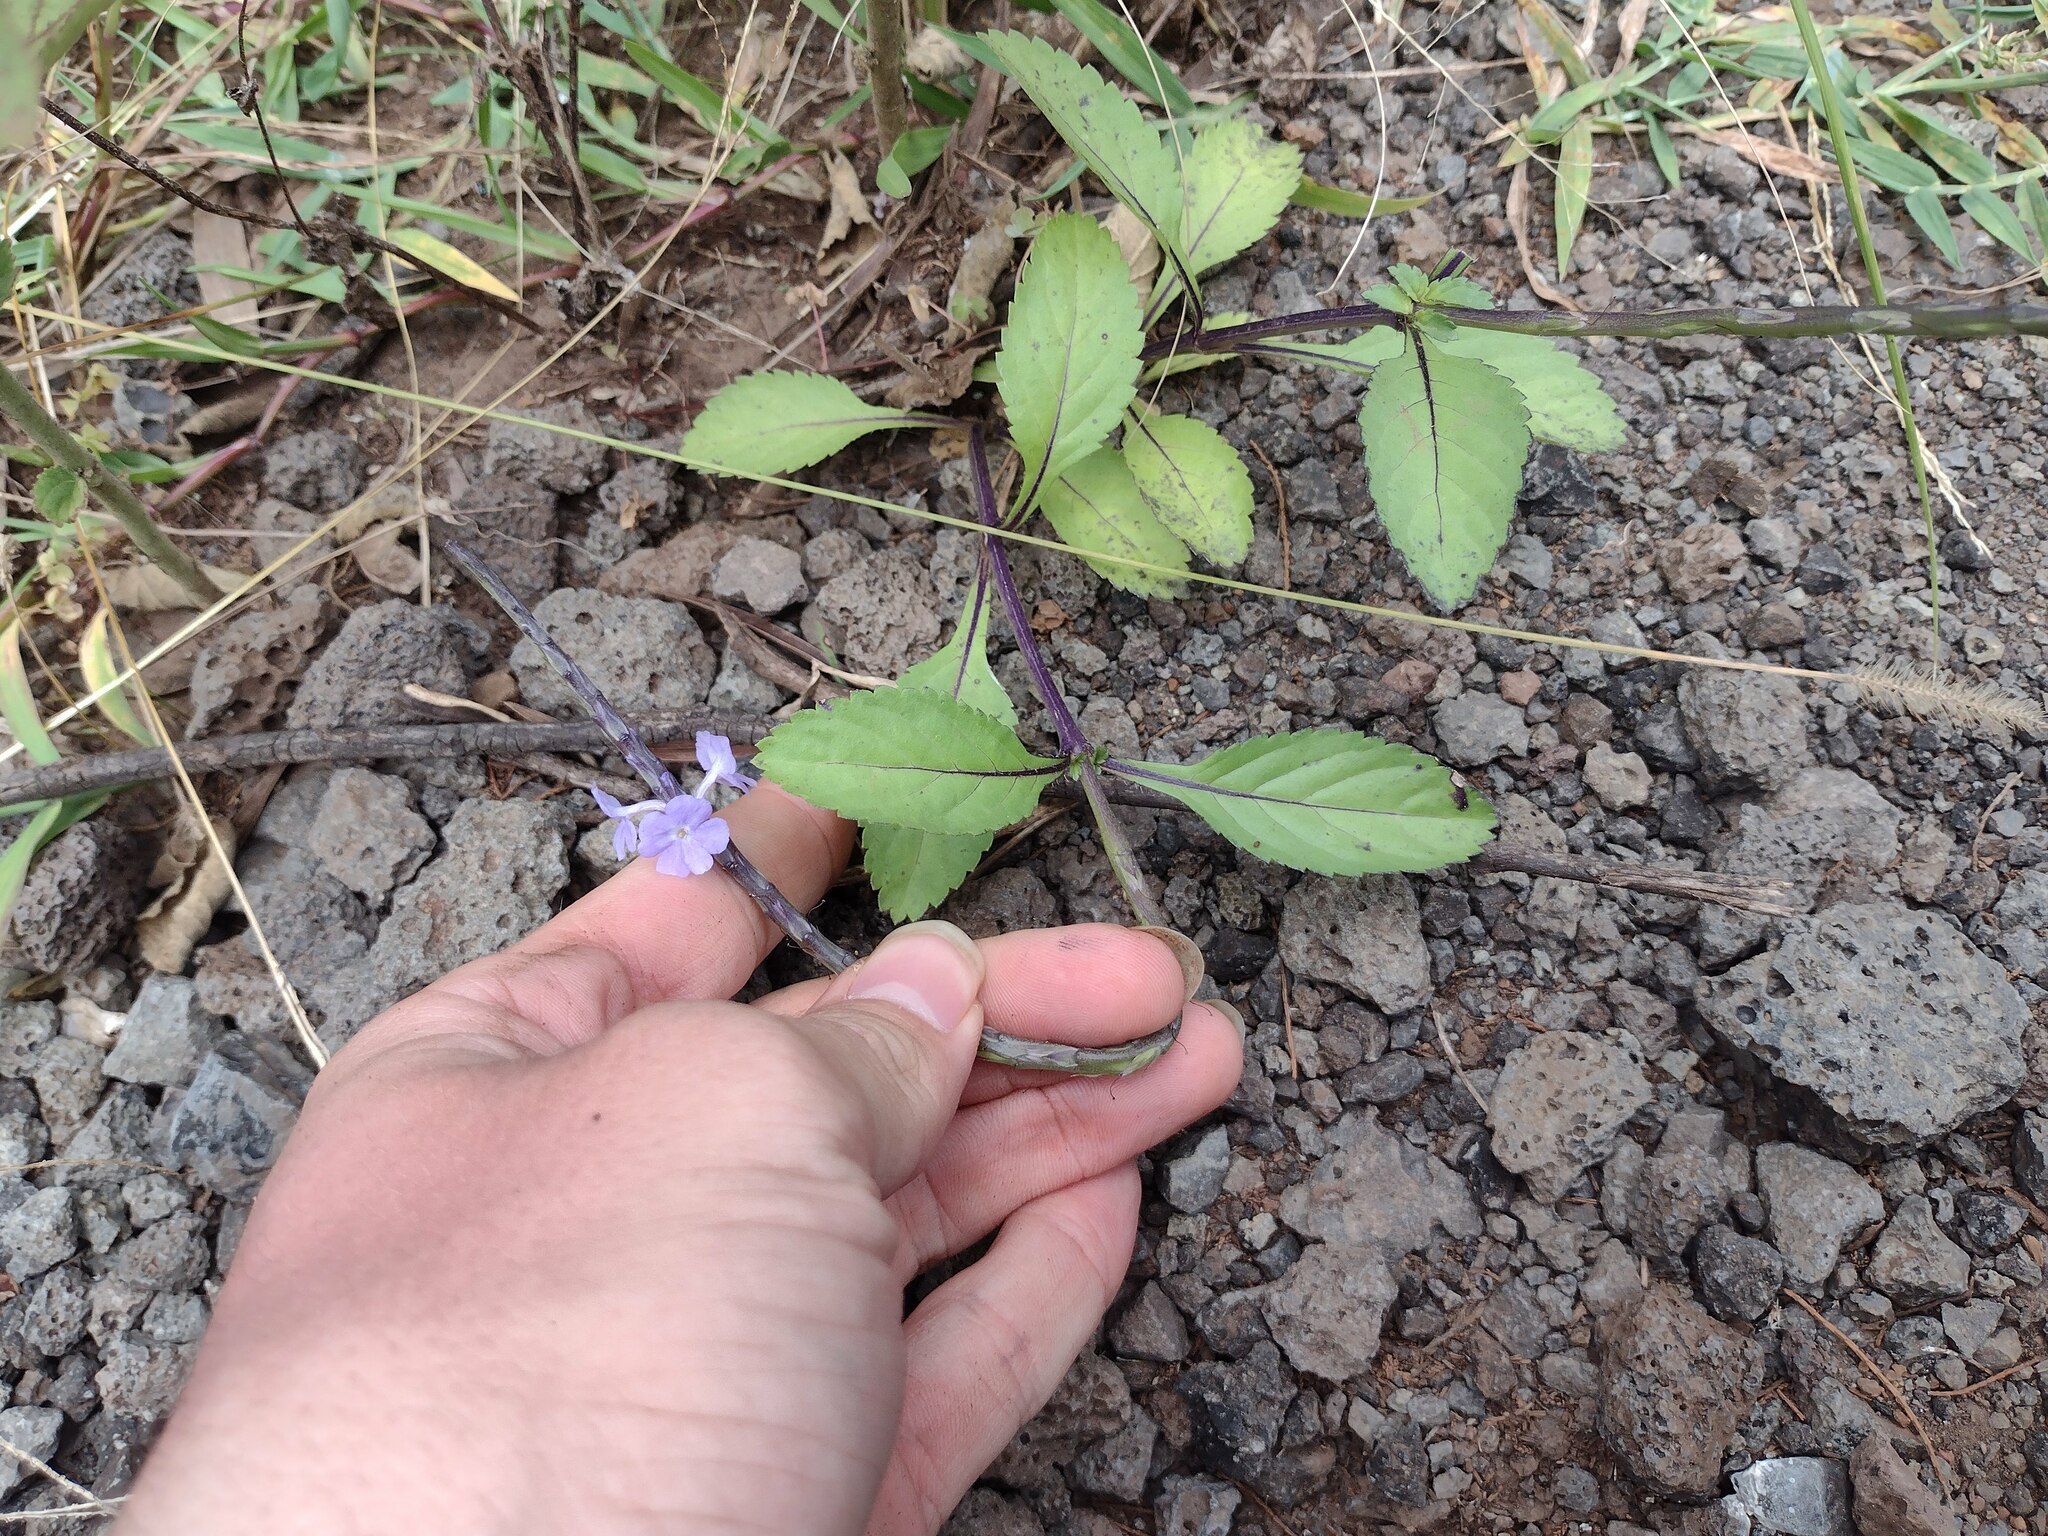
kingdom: Plantae
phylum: Tracheophyta
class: Magnoliopsida
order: Lamiales
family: Verbenaceae
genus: Stachytarpheta
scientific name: Stachytarpheta jamaicensis
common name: Light-blue snakeweed
